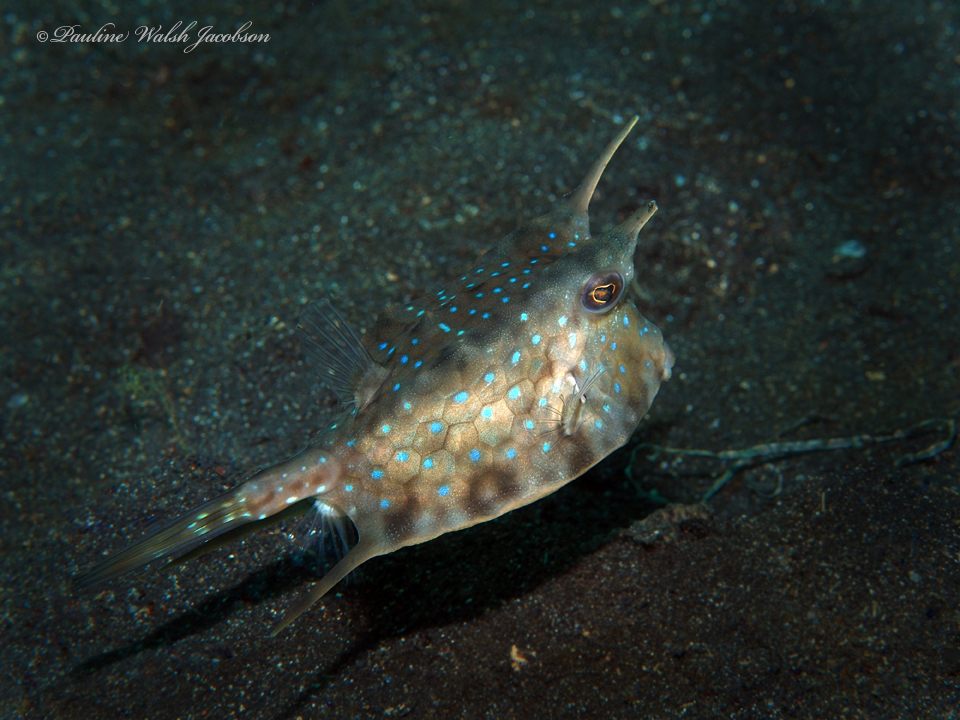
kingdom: Animalia
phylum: Chordata
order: Tetraodontiformes
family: Ostraciidae
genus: Lactoria
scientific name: Lactoria cornuta
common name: Longhorn cowfish
